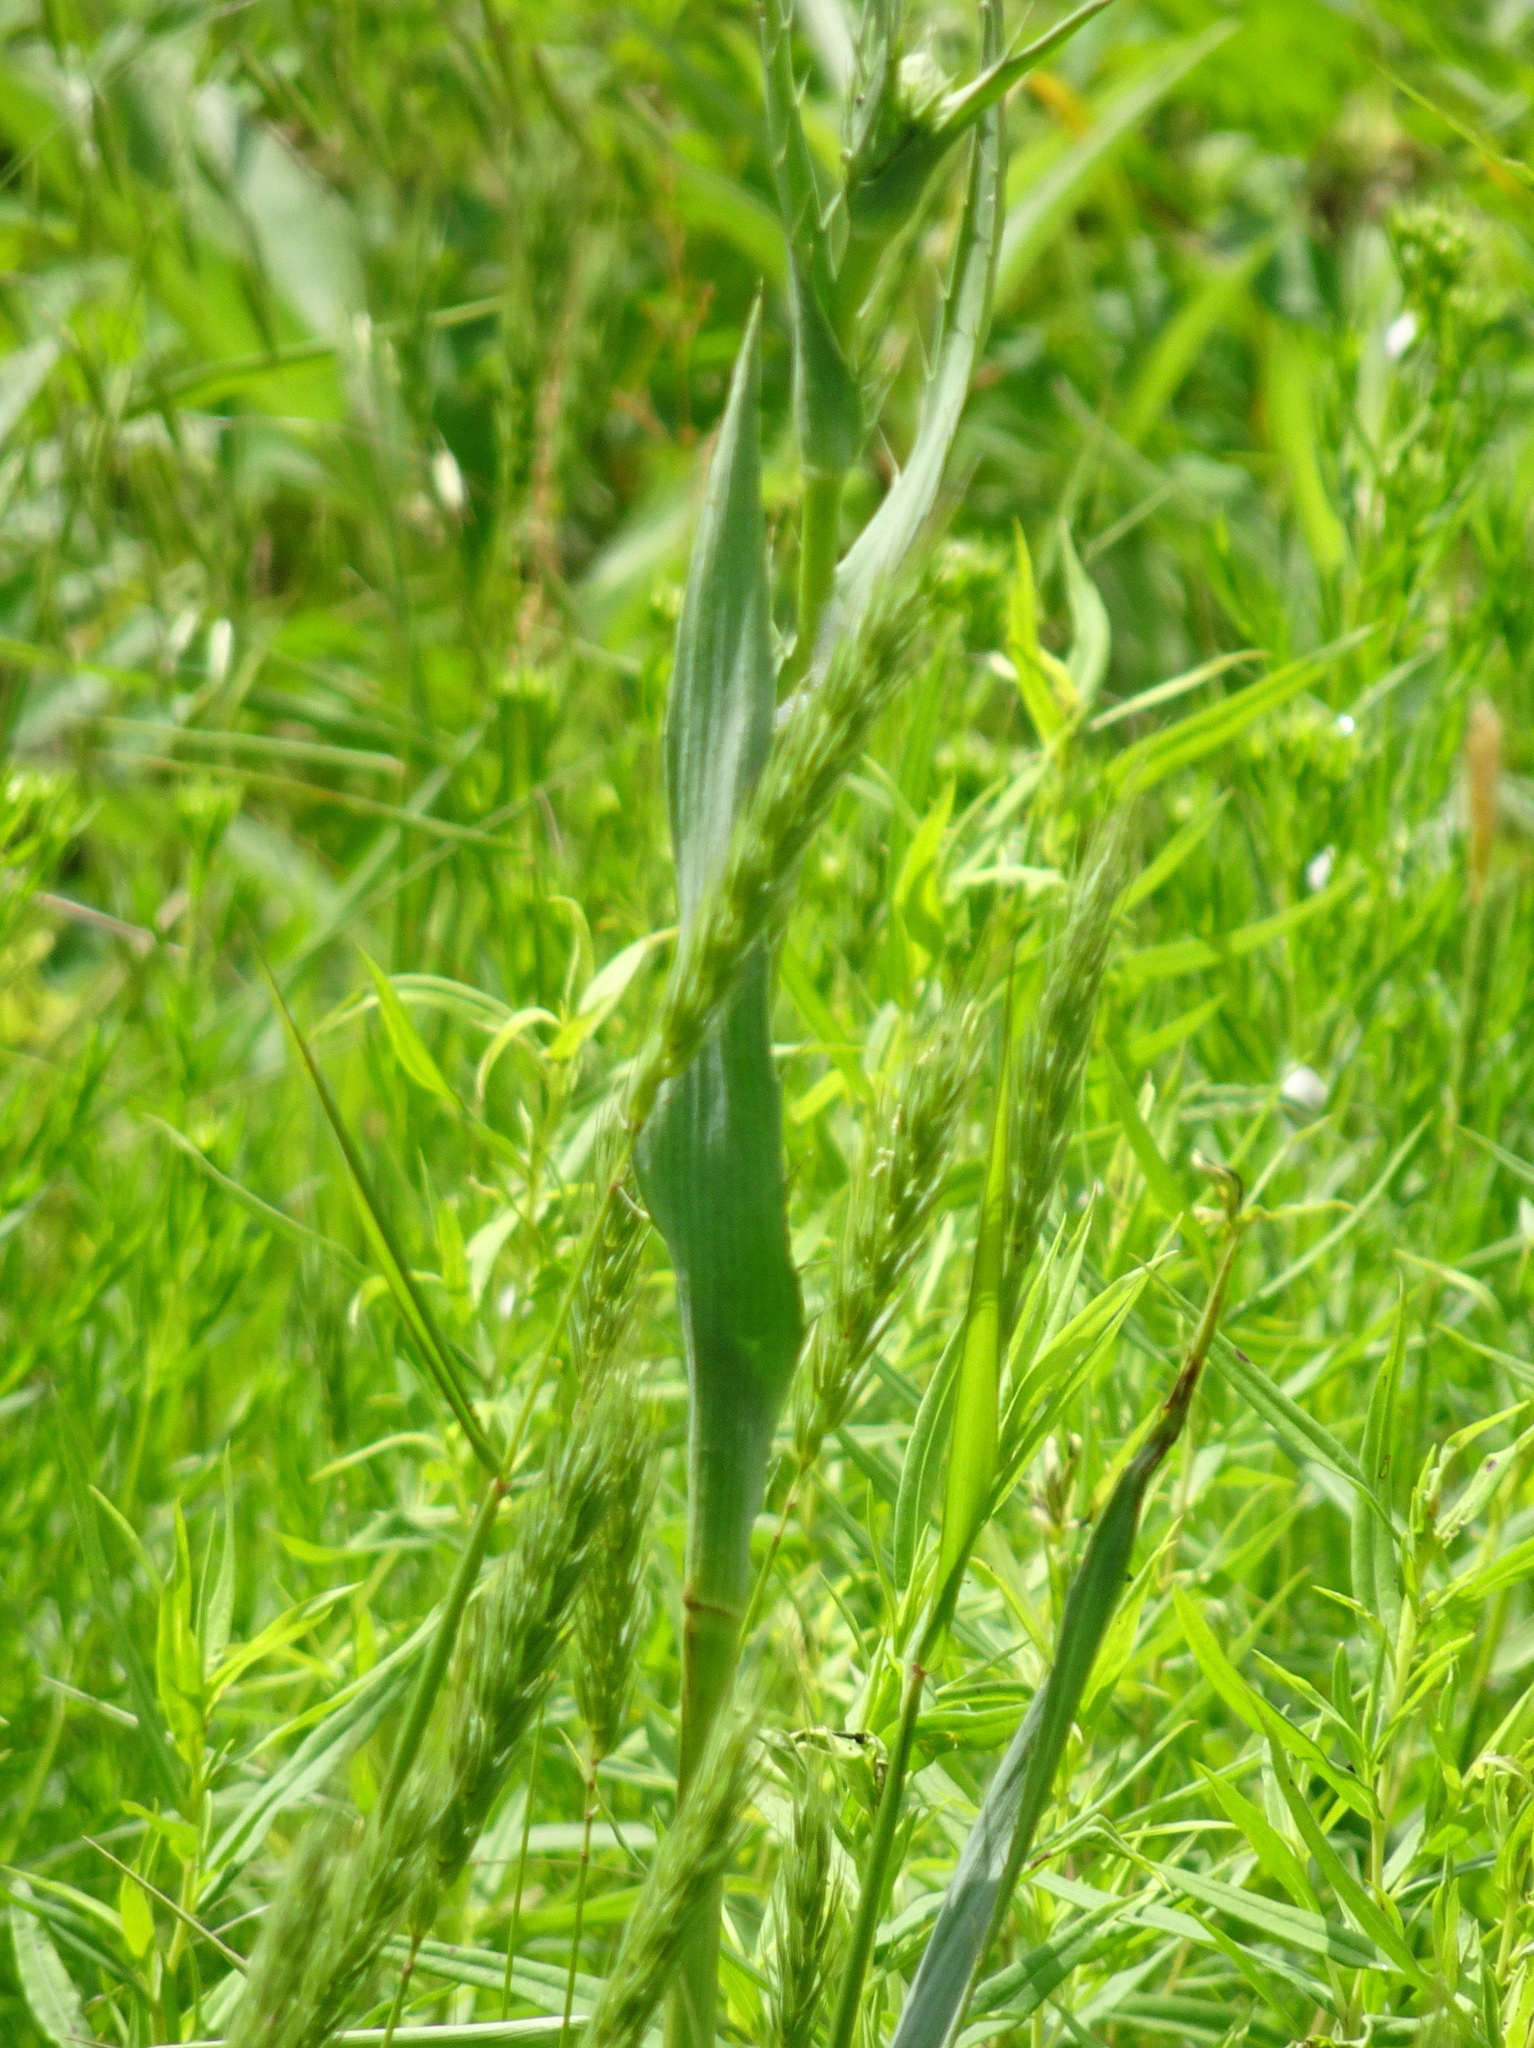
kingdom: Plantae
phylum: Tracheophyta
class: Magnoliopsida
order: Apiales
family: Apiaceae
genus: Eryngium
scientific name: Eryngium yuccifolium
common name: Button eryngo
